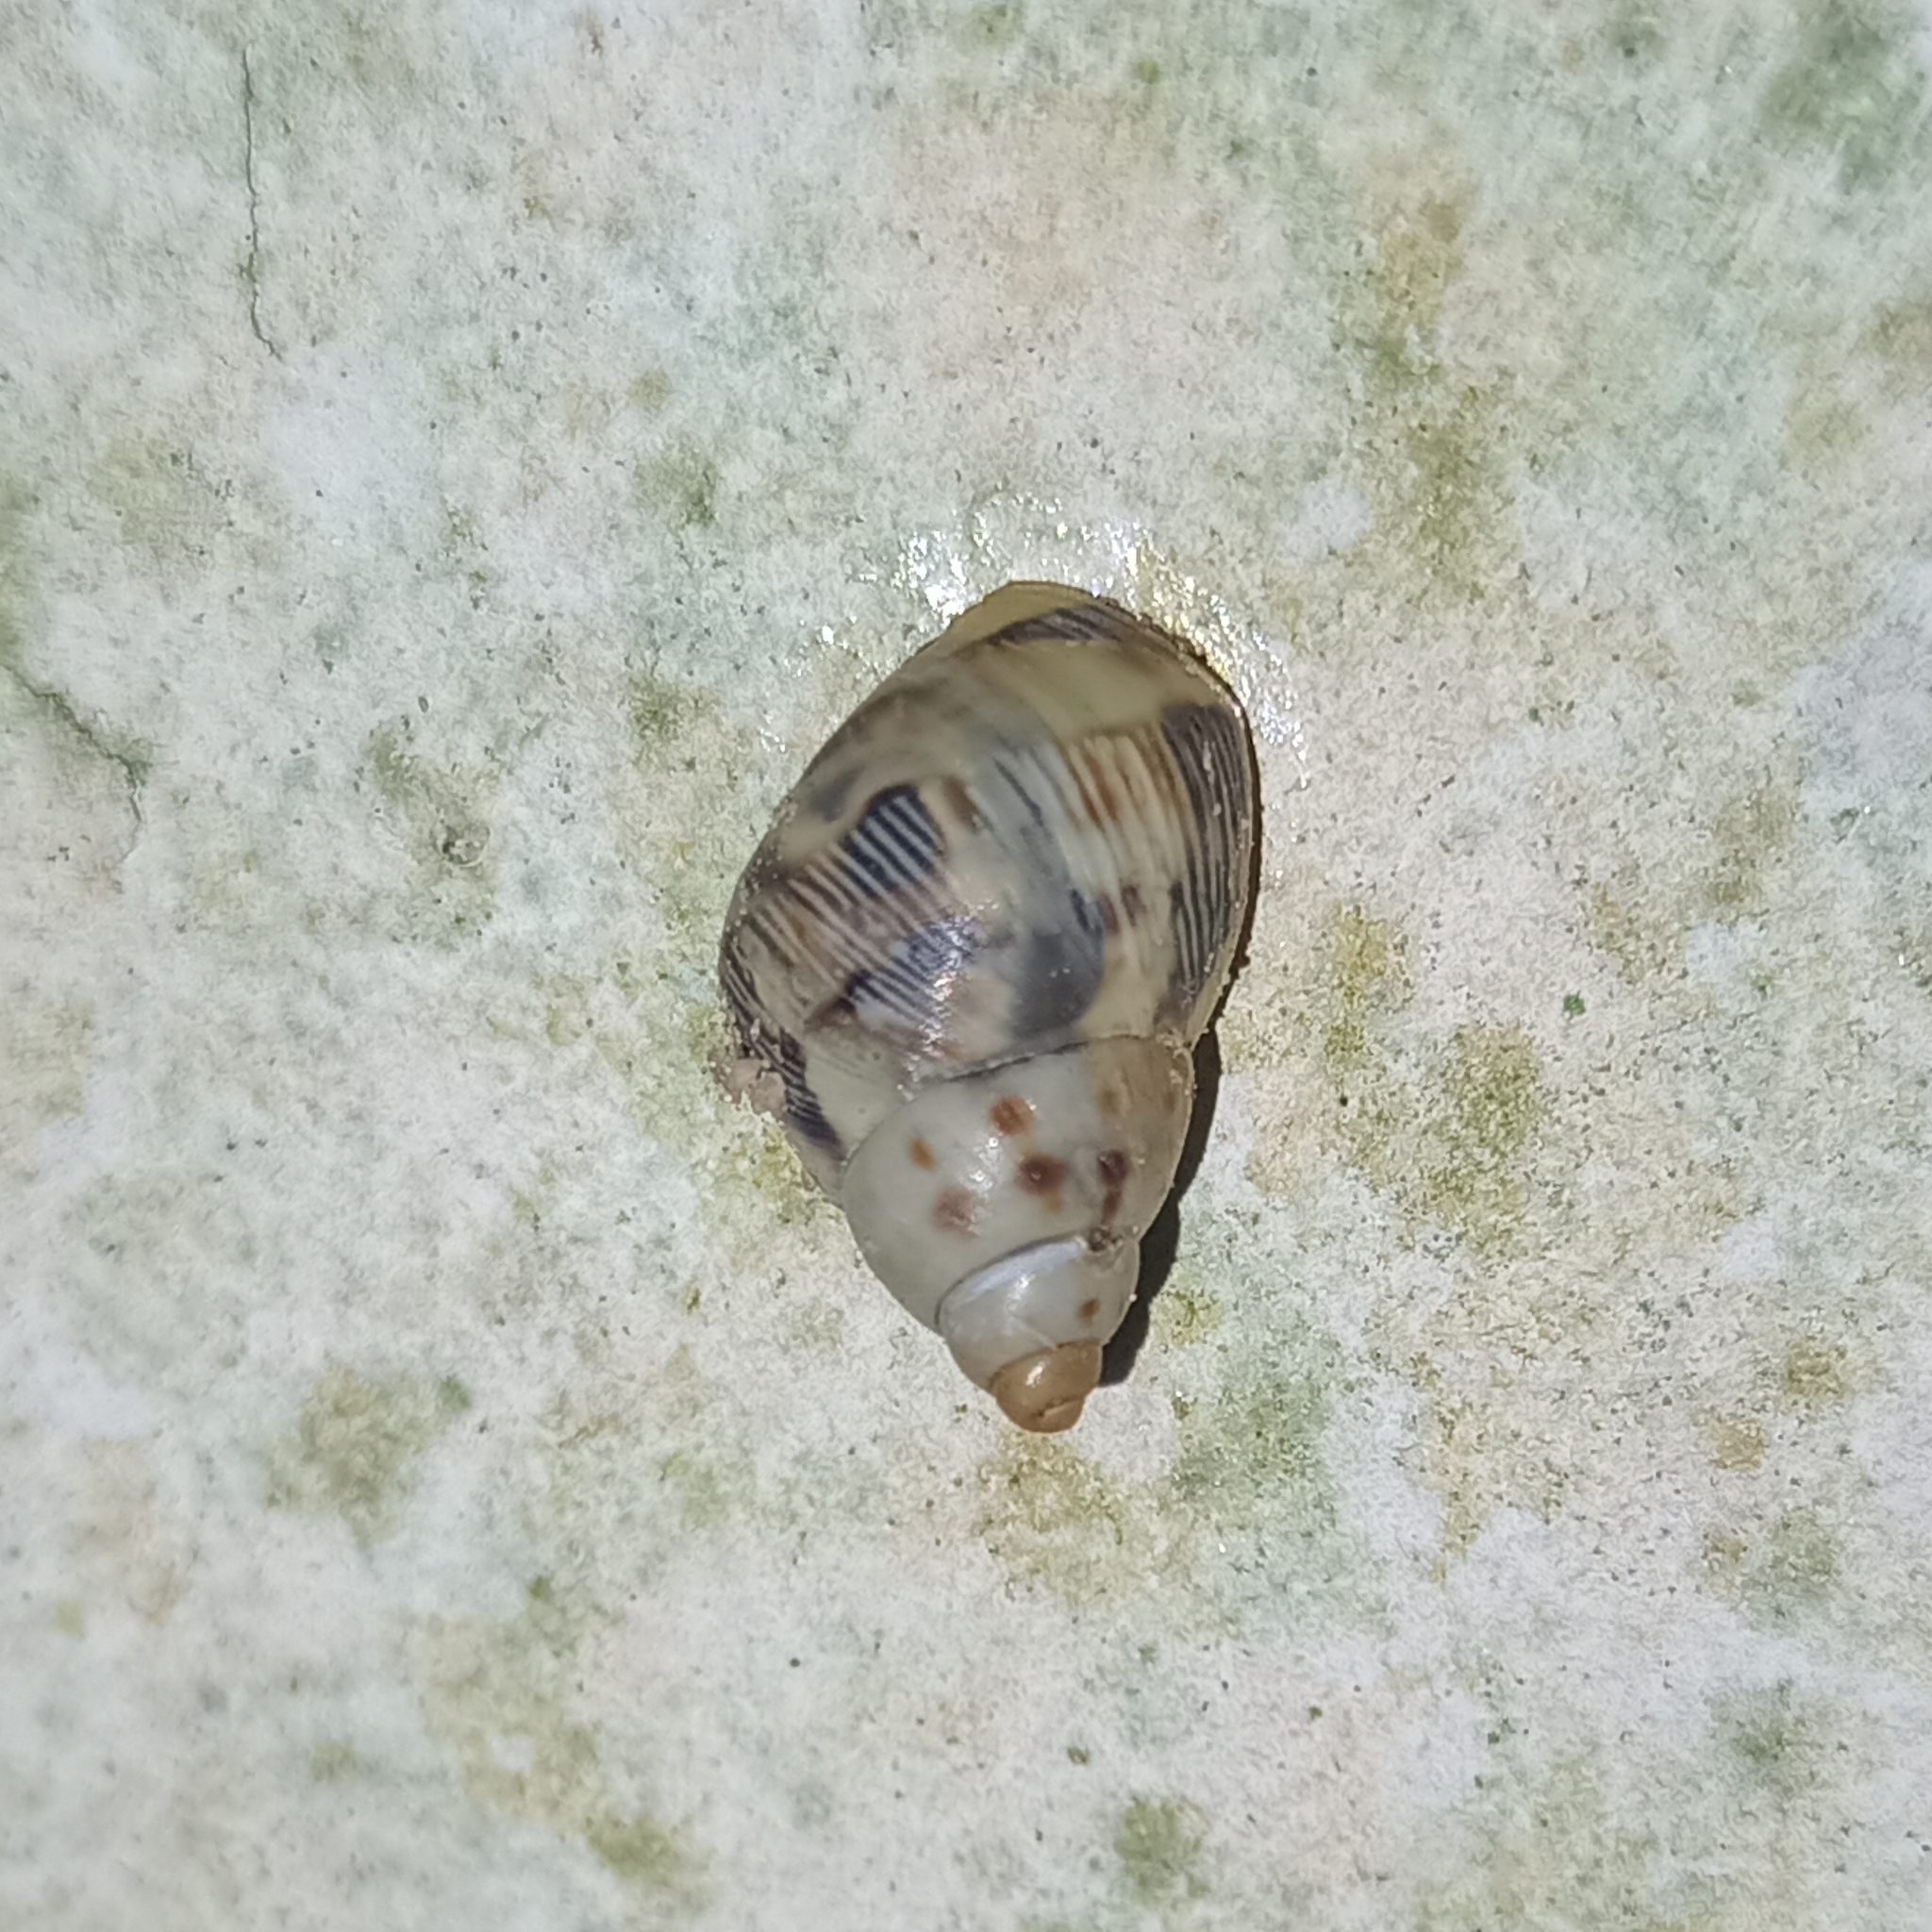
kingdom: Animalia
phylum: Mollusca
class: Gastropoda
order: Stylommatophora
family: Bulimulidae
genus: Drymaeus
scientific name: Drymaeus papyraceus
